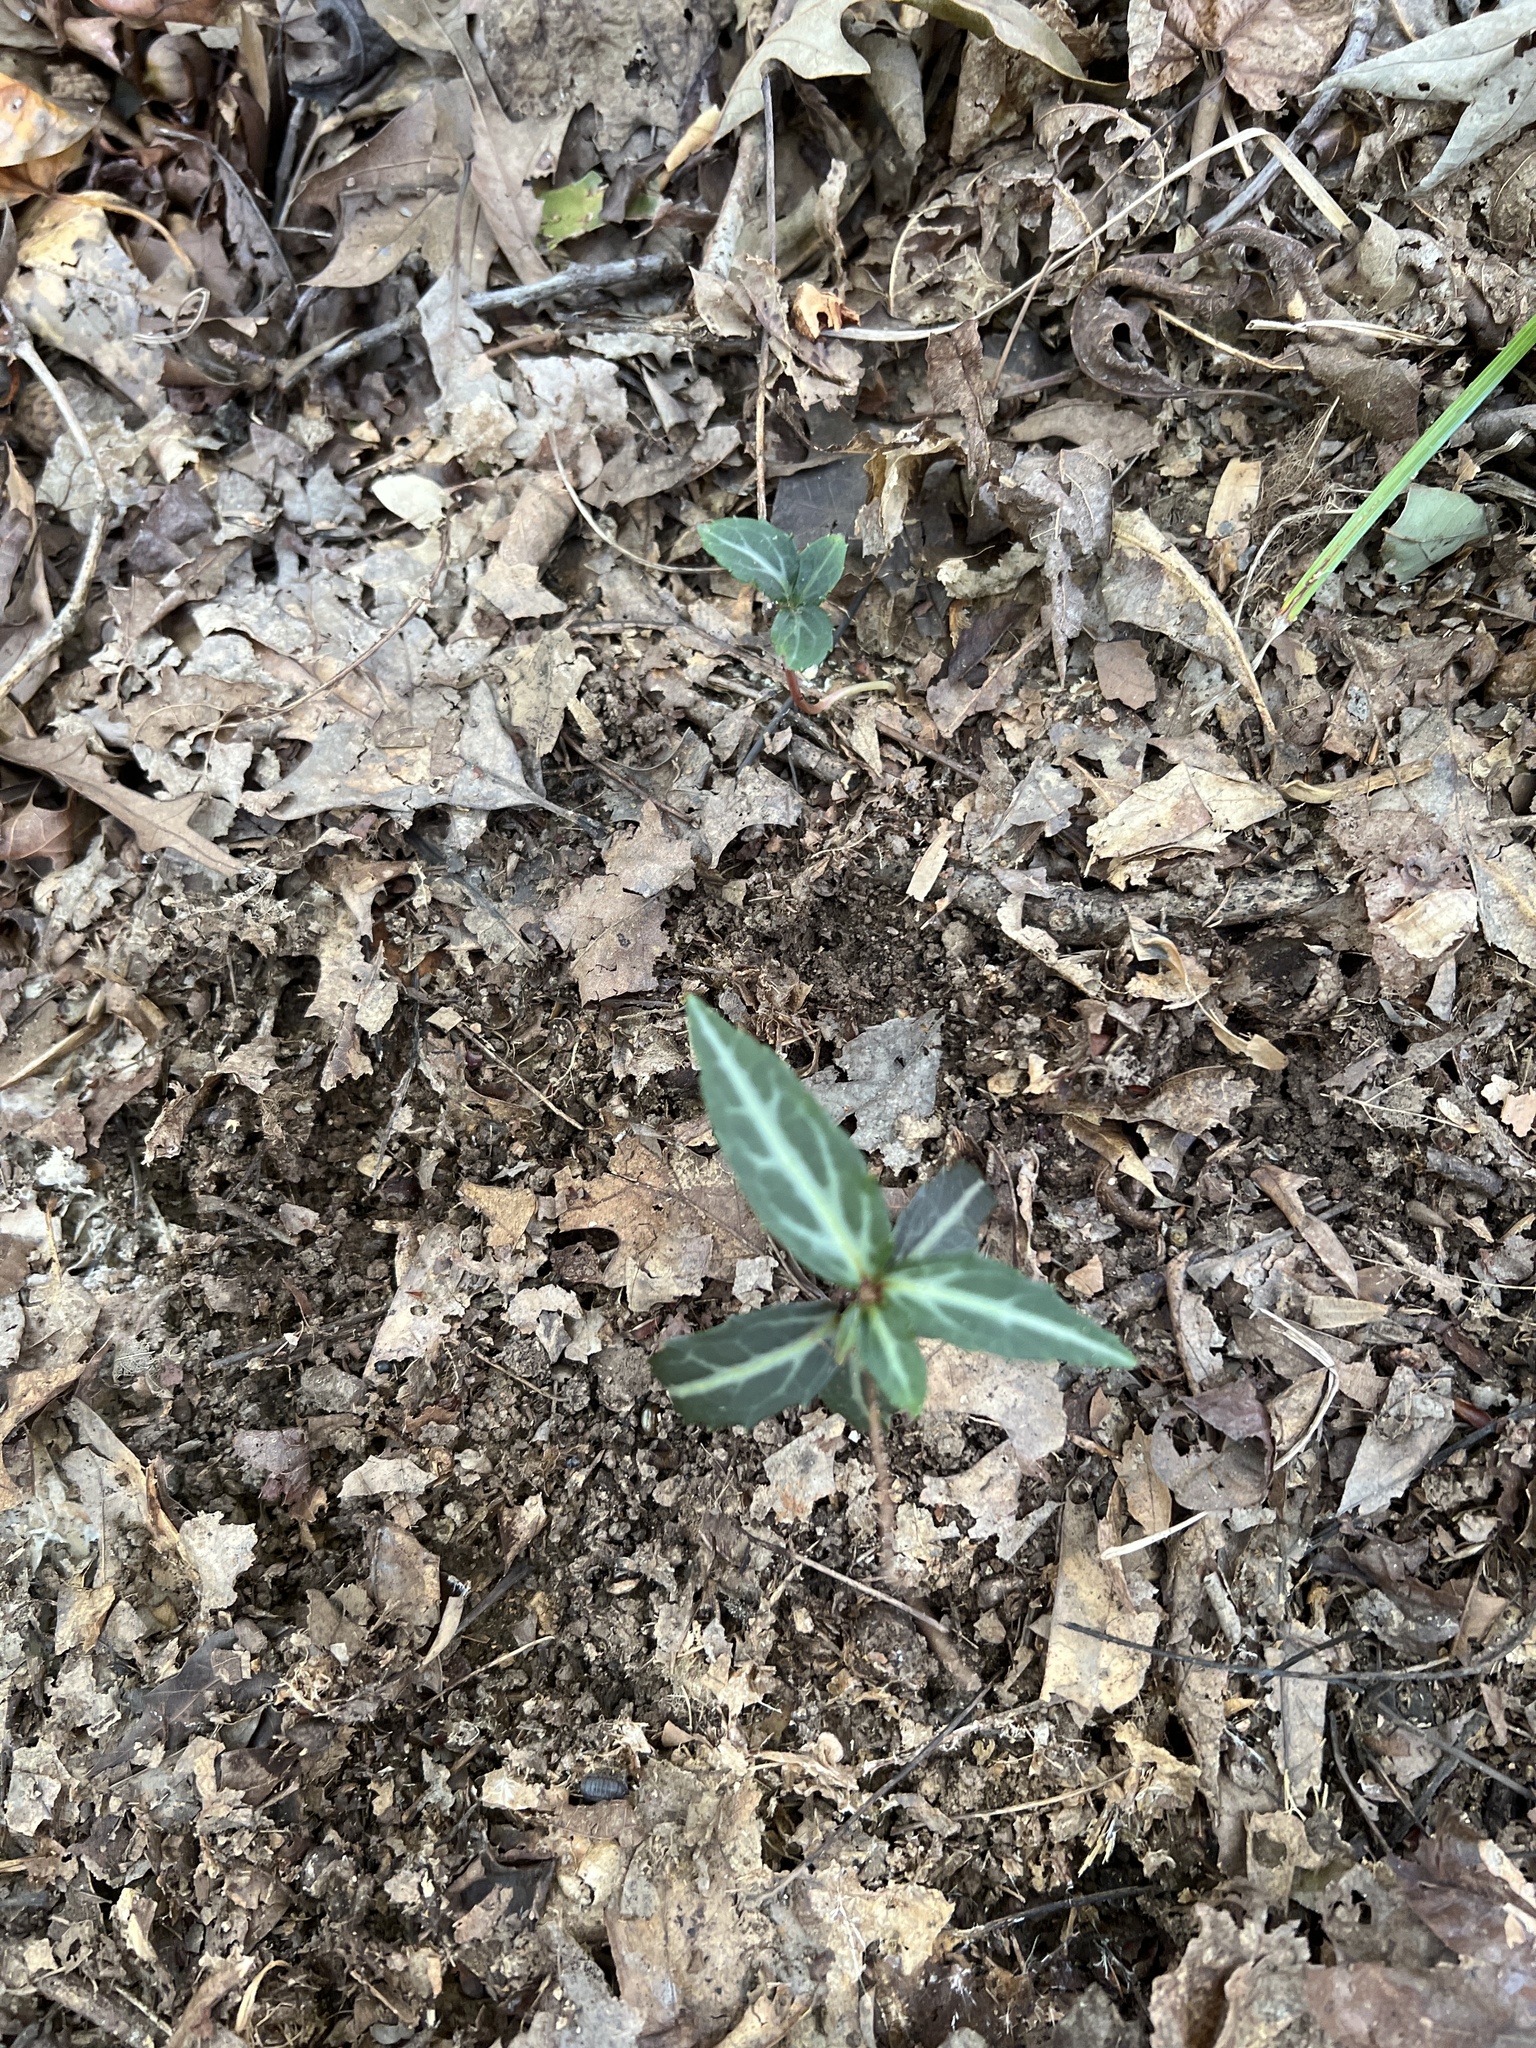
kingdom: Plantae
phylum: Tracheophyta
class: Magnoliopsida
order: Ericales
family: Ericaceae
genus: Chimaphila
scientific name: Chimaphila maculata
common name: Spotted pipsissewa
